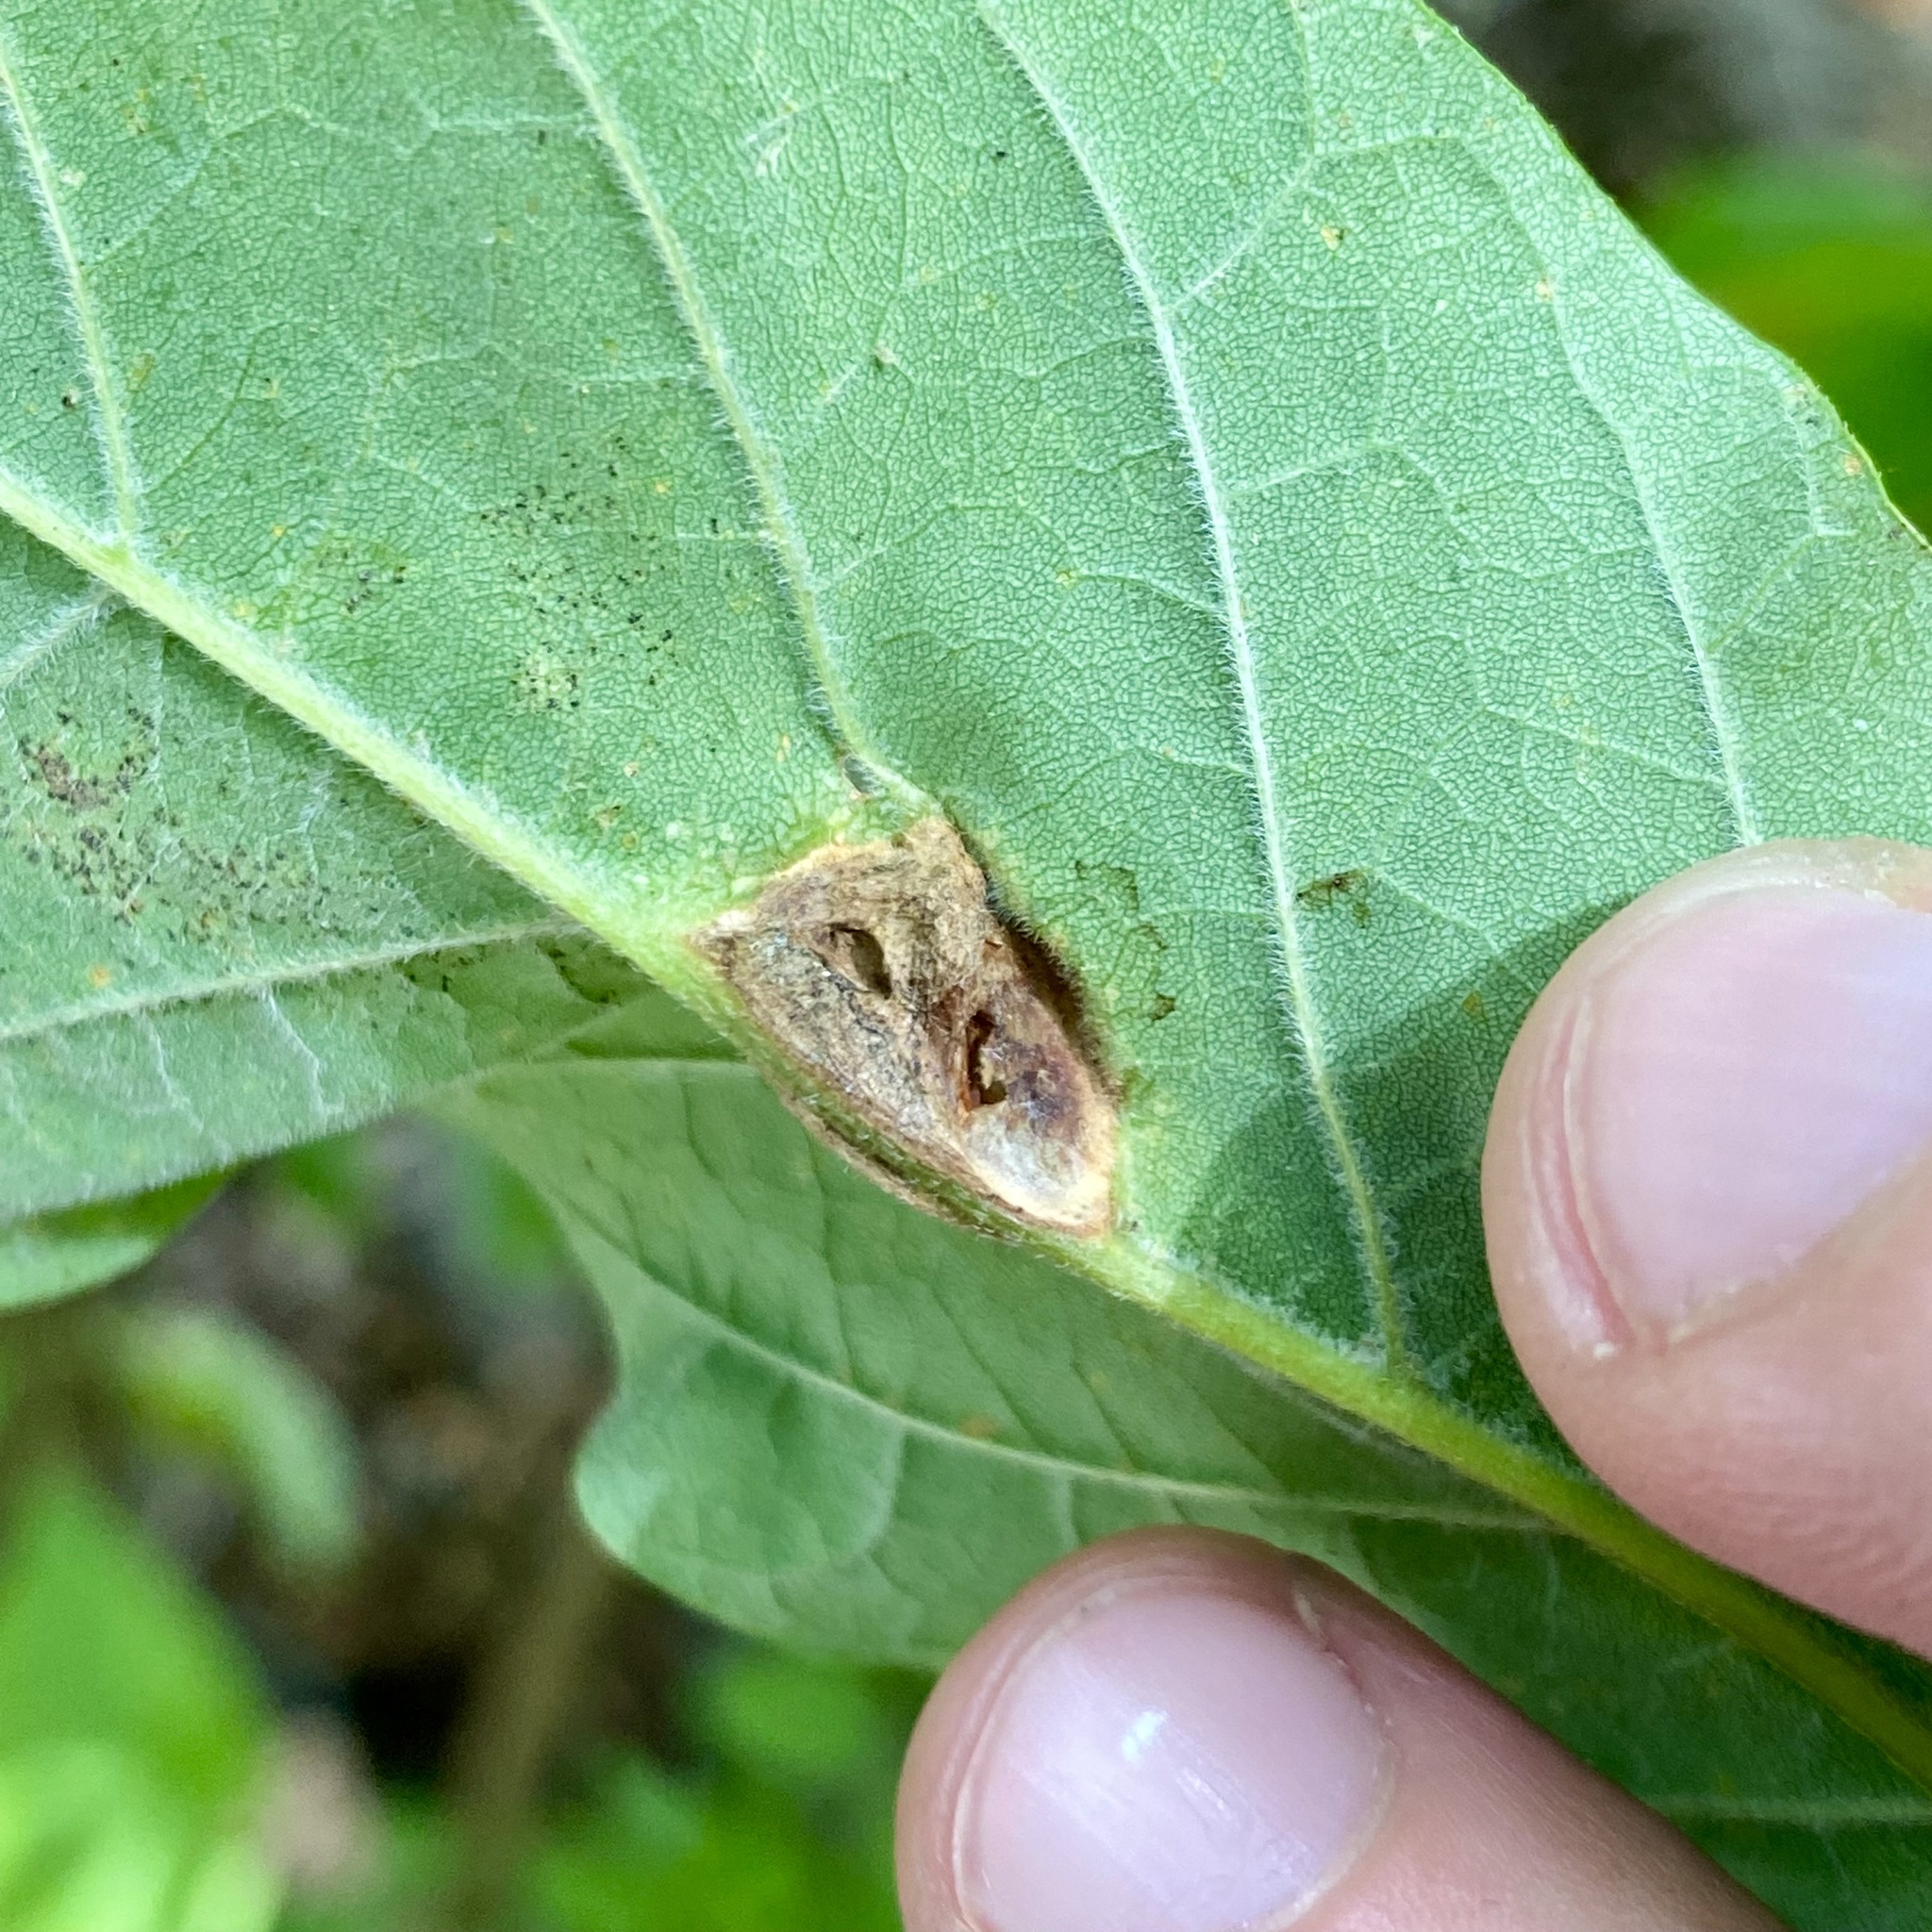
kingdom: Animalia
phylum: Arthropoda
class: Insecta
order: Diptera
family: Cecidomyiidae
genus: Dasineura
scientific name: Dasineura tumidosae
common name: Ash petiole gall midge
